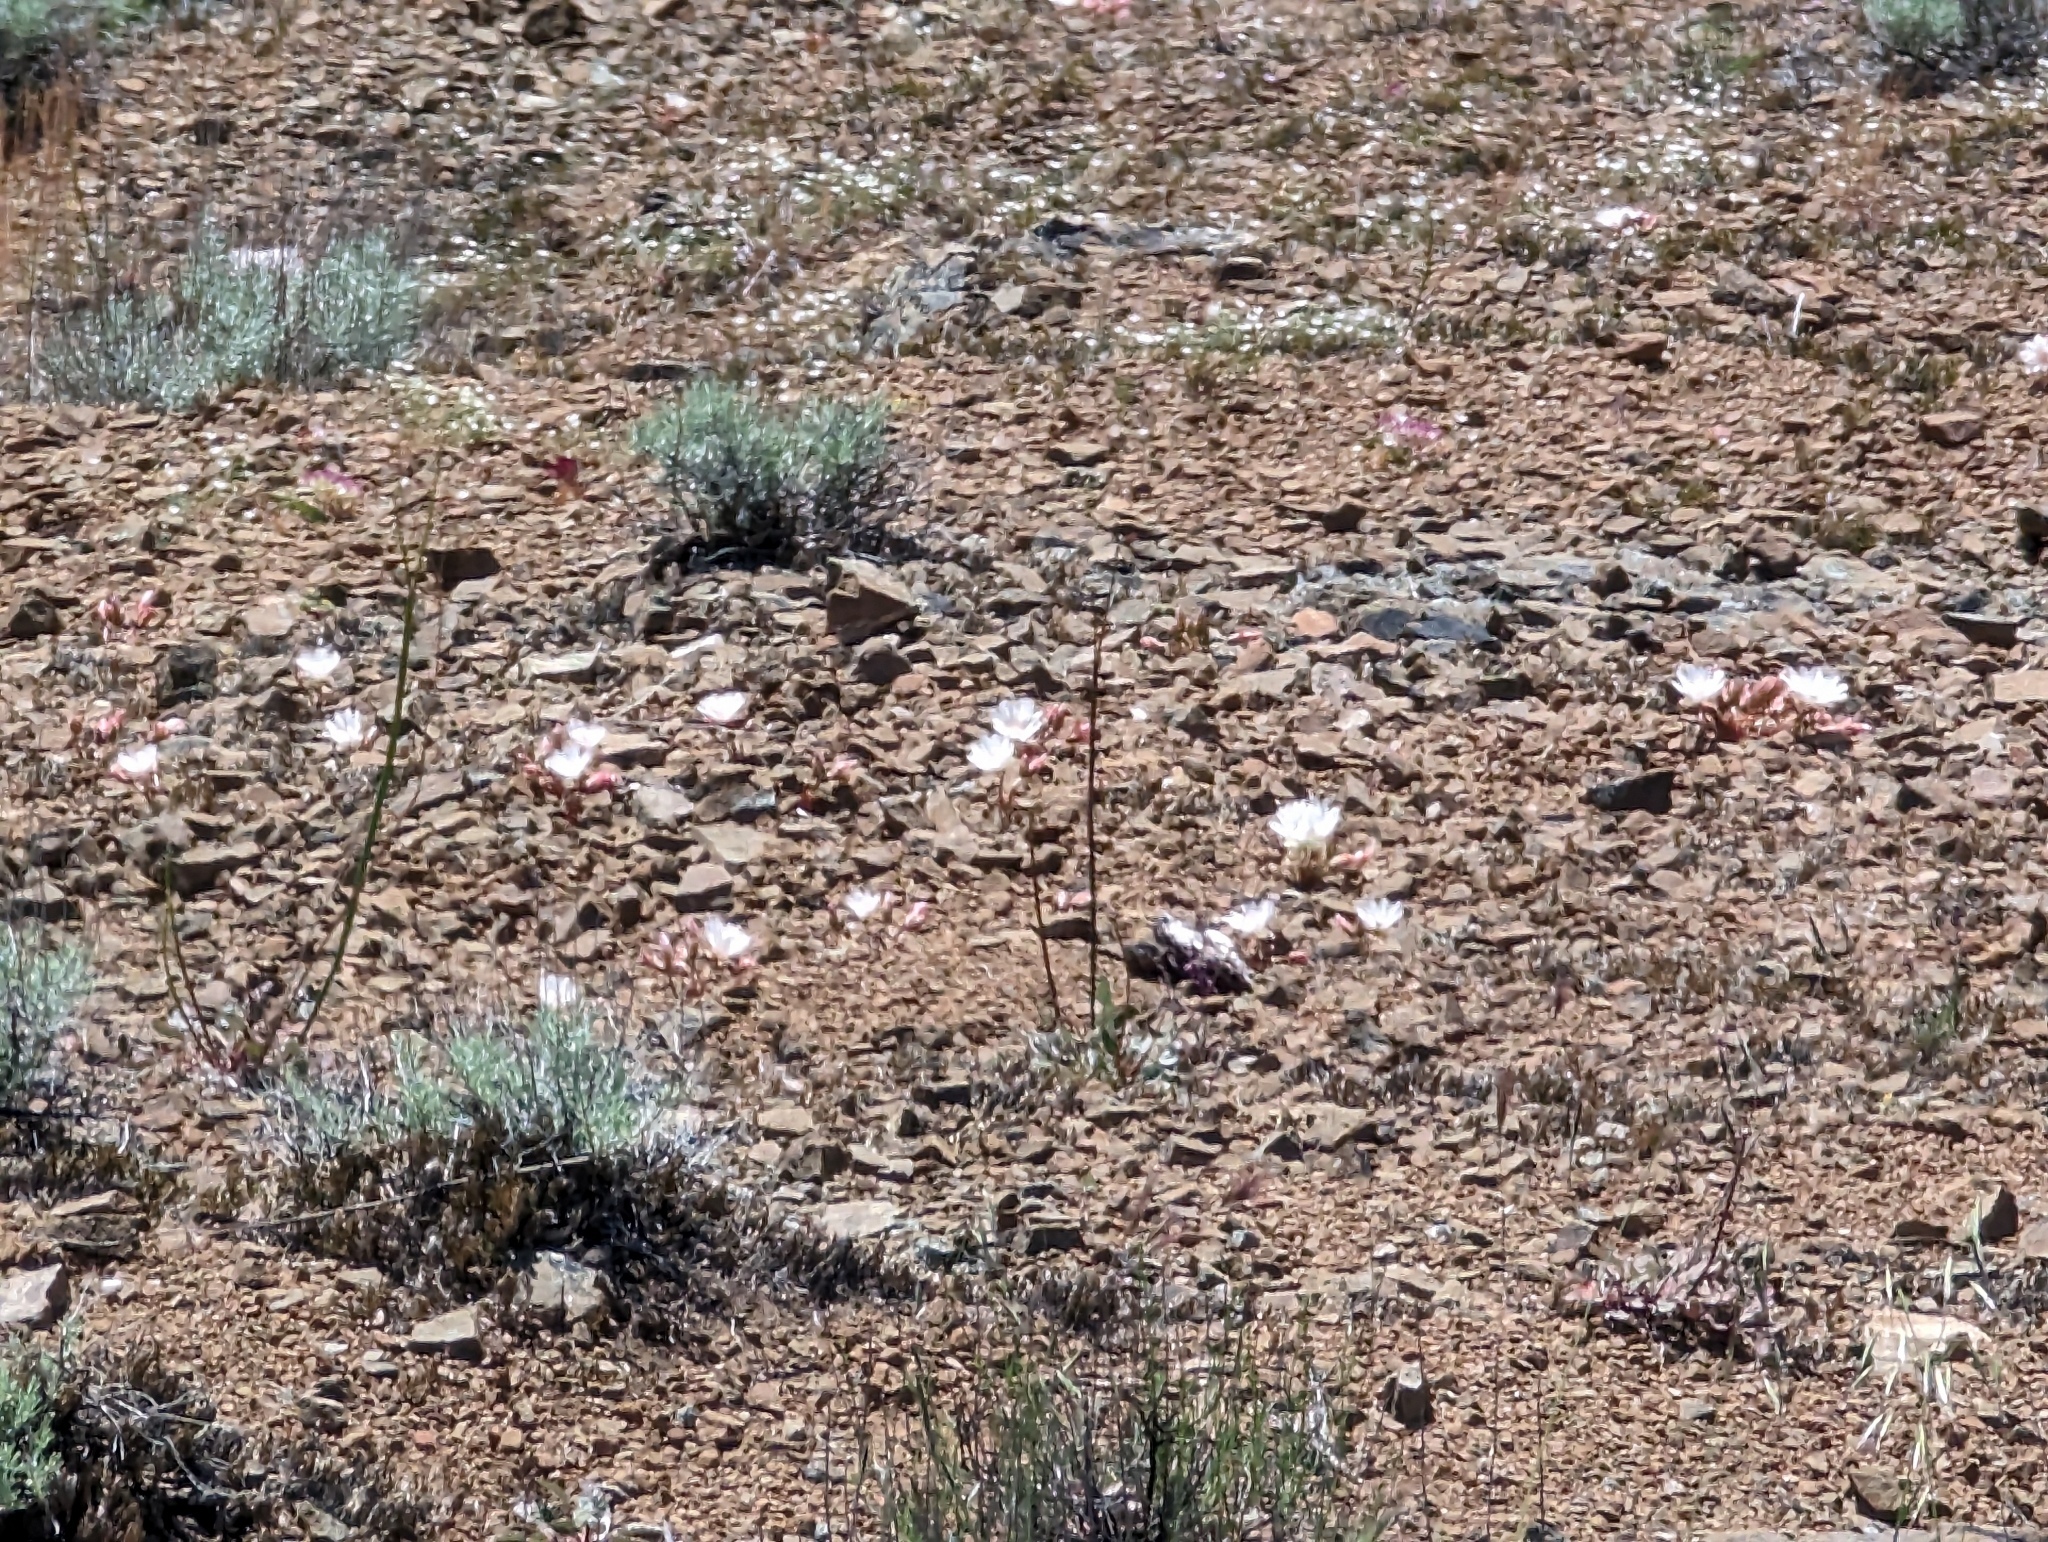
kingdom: Plantae
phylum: Tracheophyta
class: Magnoliopsida
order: Caryophyllales
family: Montiaceae
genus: Lewisia
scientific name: Lewisia rediviva
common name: Bitter-root
